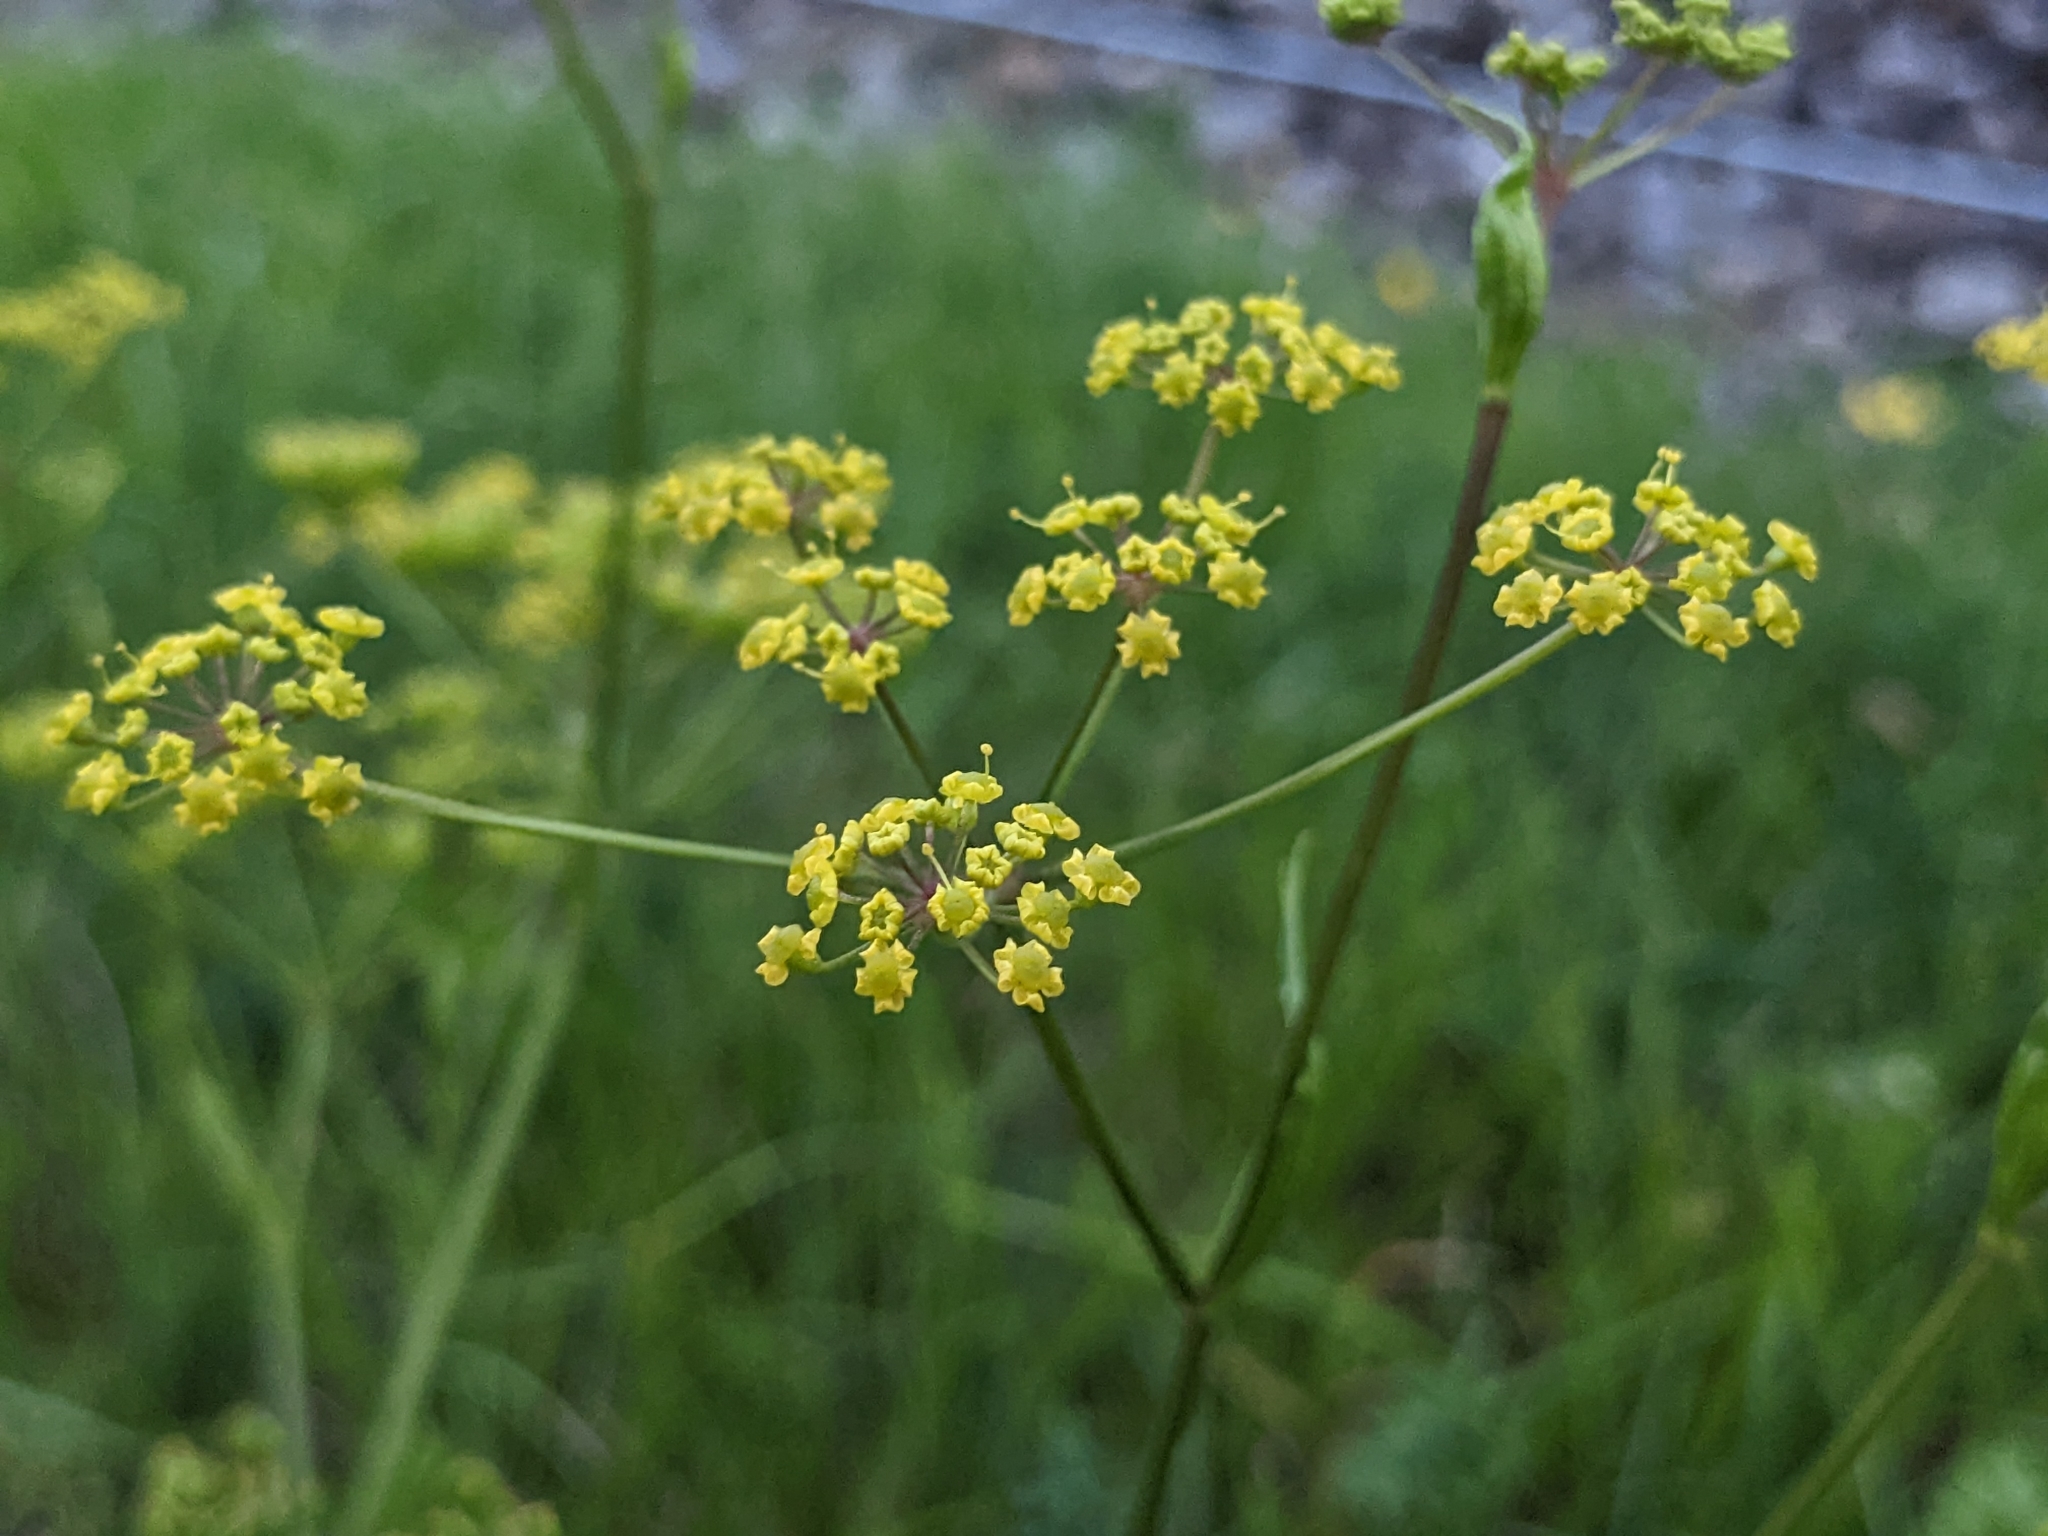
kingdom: Plantae
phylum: Tracheophyta
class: Magnoliopsida
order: Apiales
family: Apiaceae
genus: Pastinaca
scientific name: Pastinaca sativa
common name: Wild parsnip
